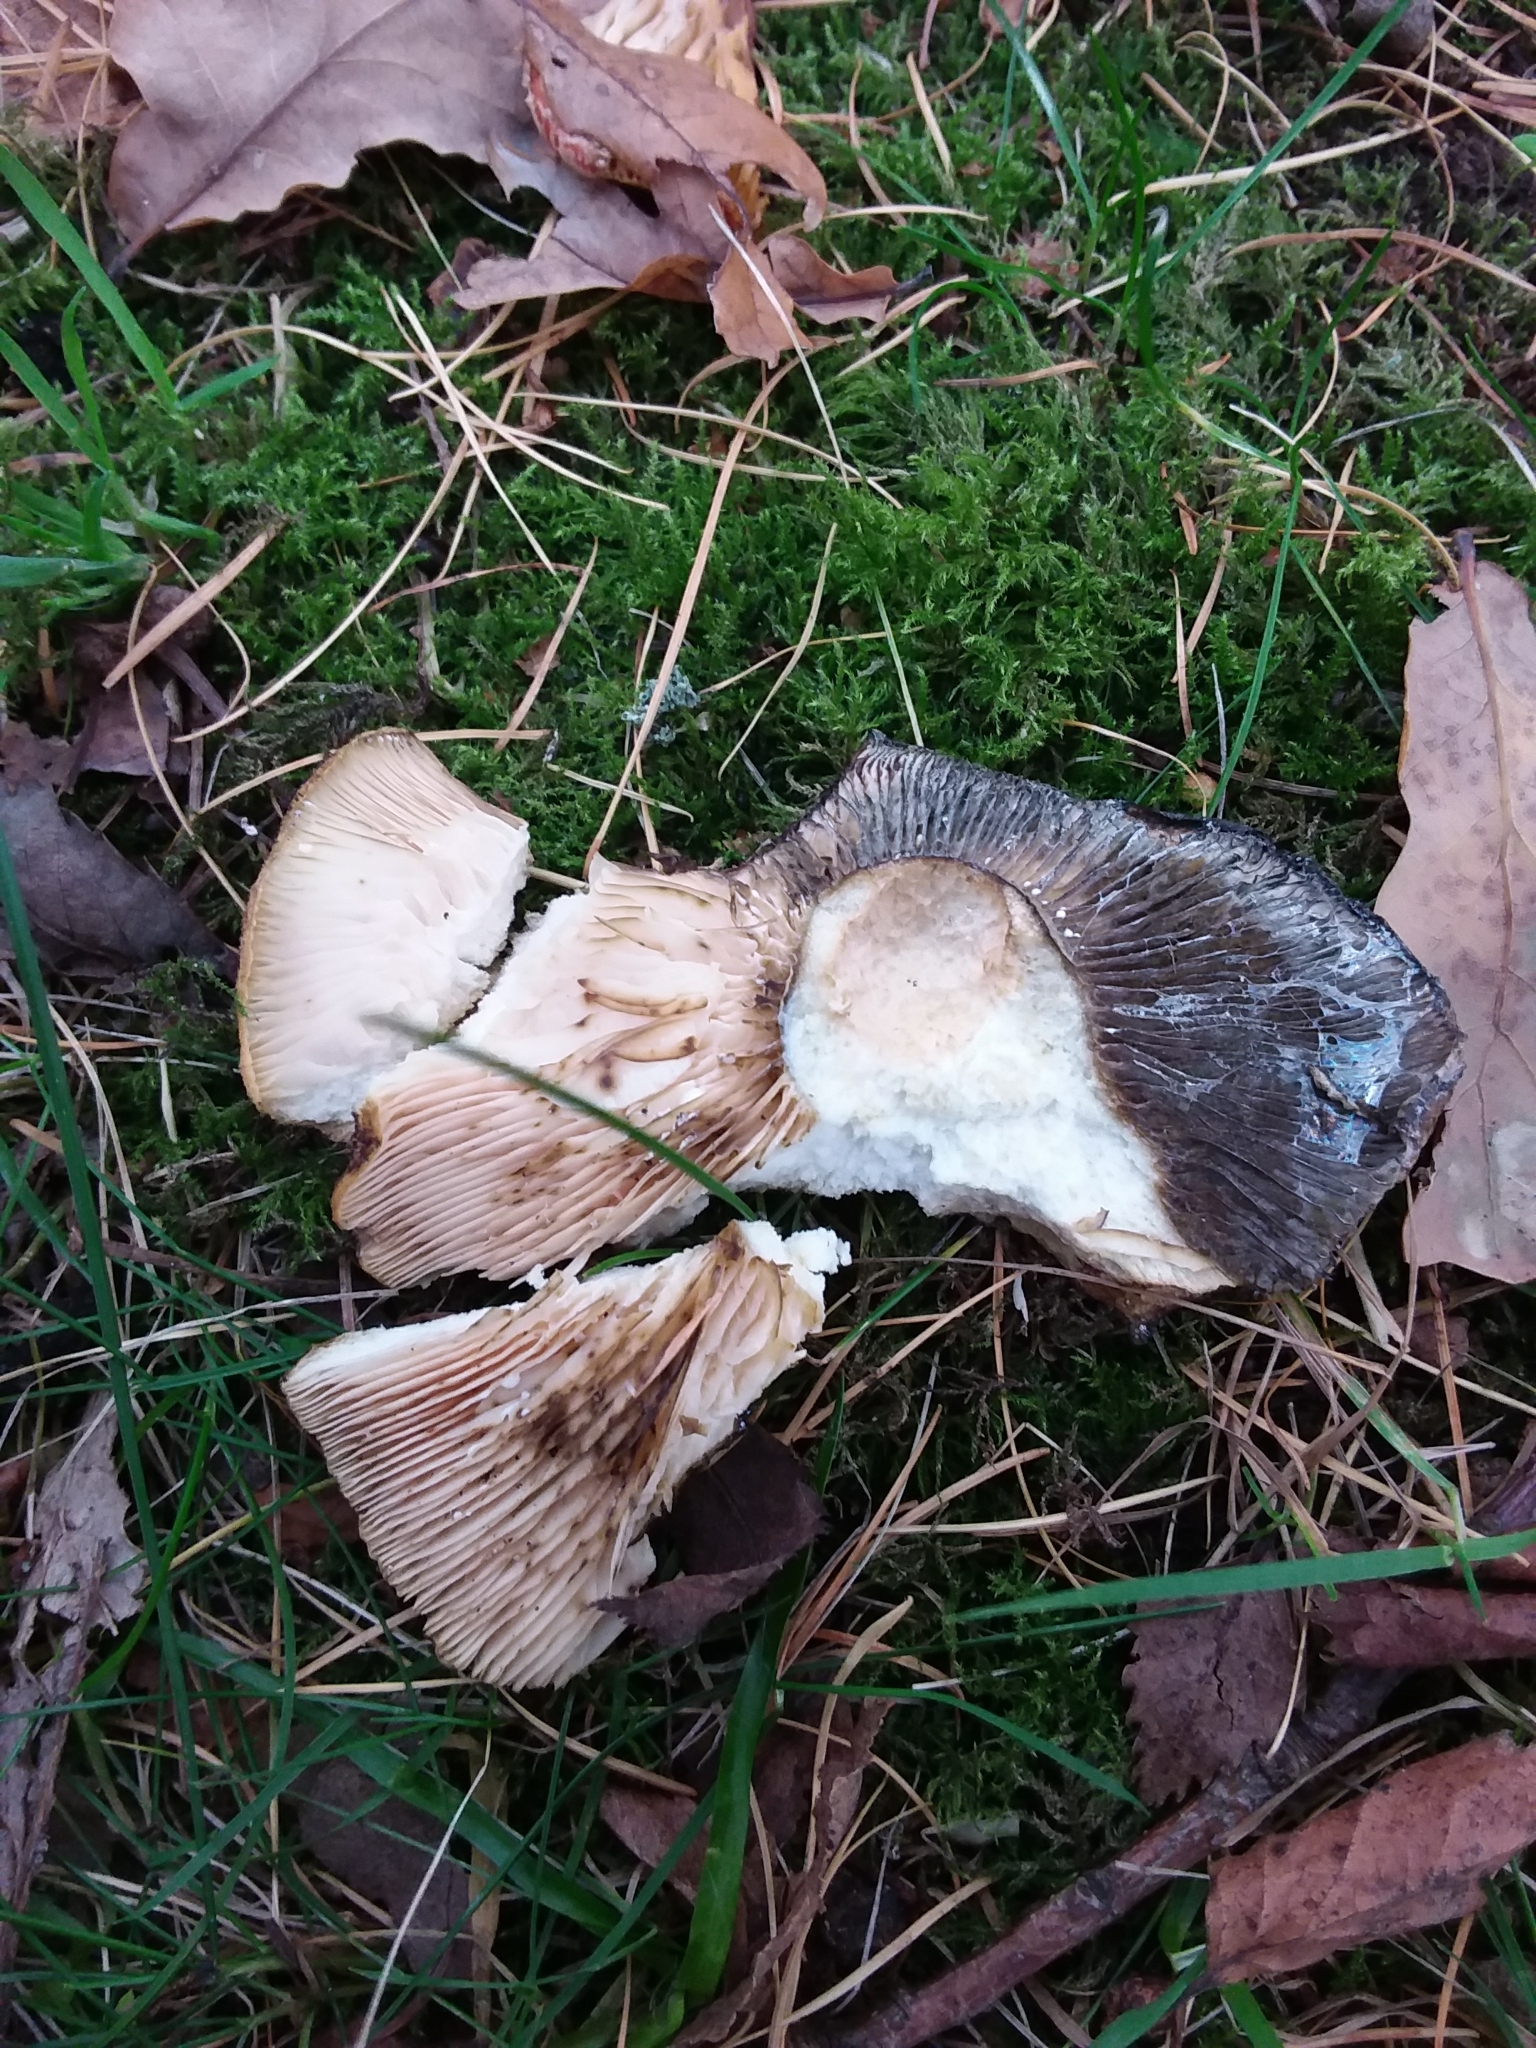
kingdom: Fungi
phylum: Basidiomycota
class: Agaricomycetes
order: Russulales
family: Russulaceae
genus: Lactarius
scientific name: Lactarius turpis
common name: Ugly milk-cap
